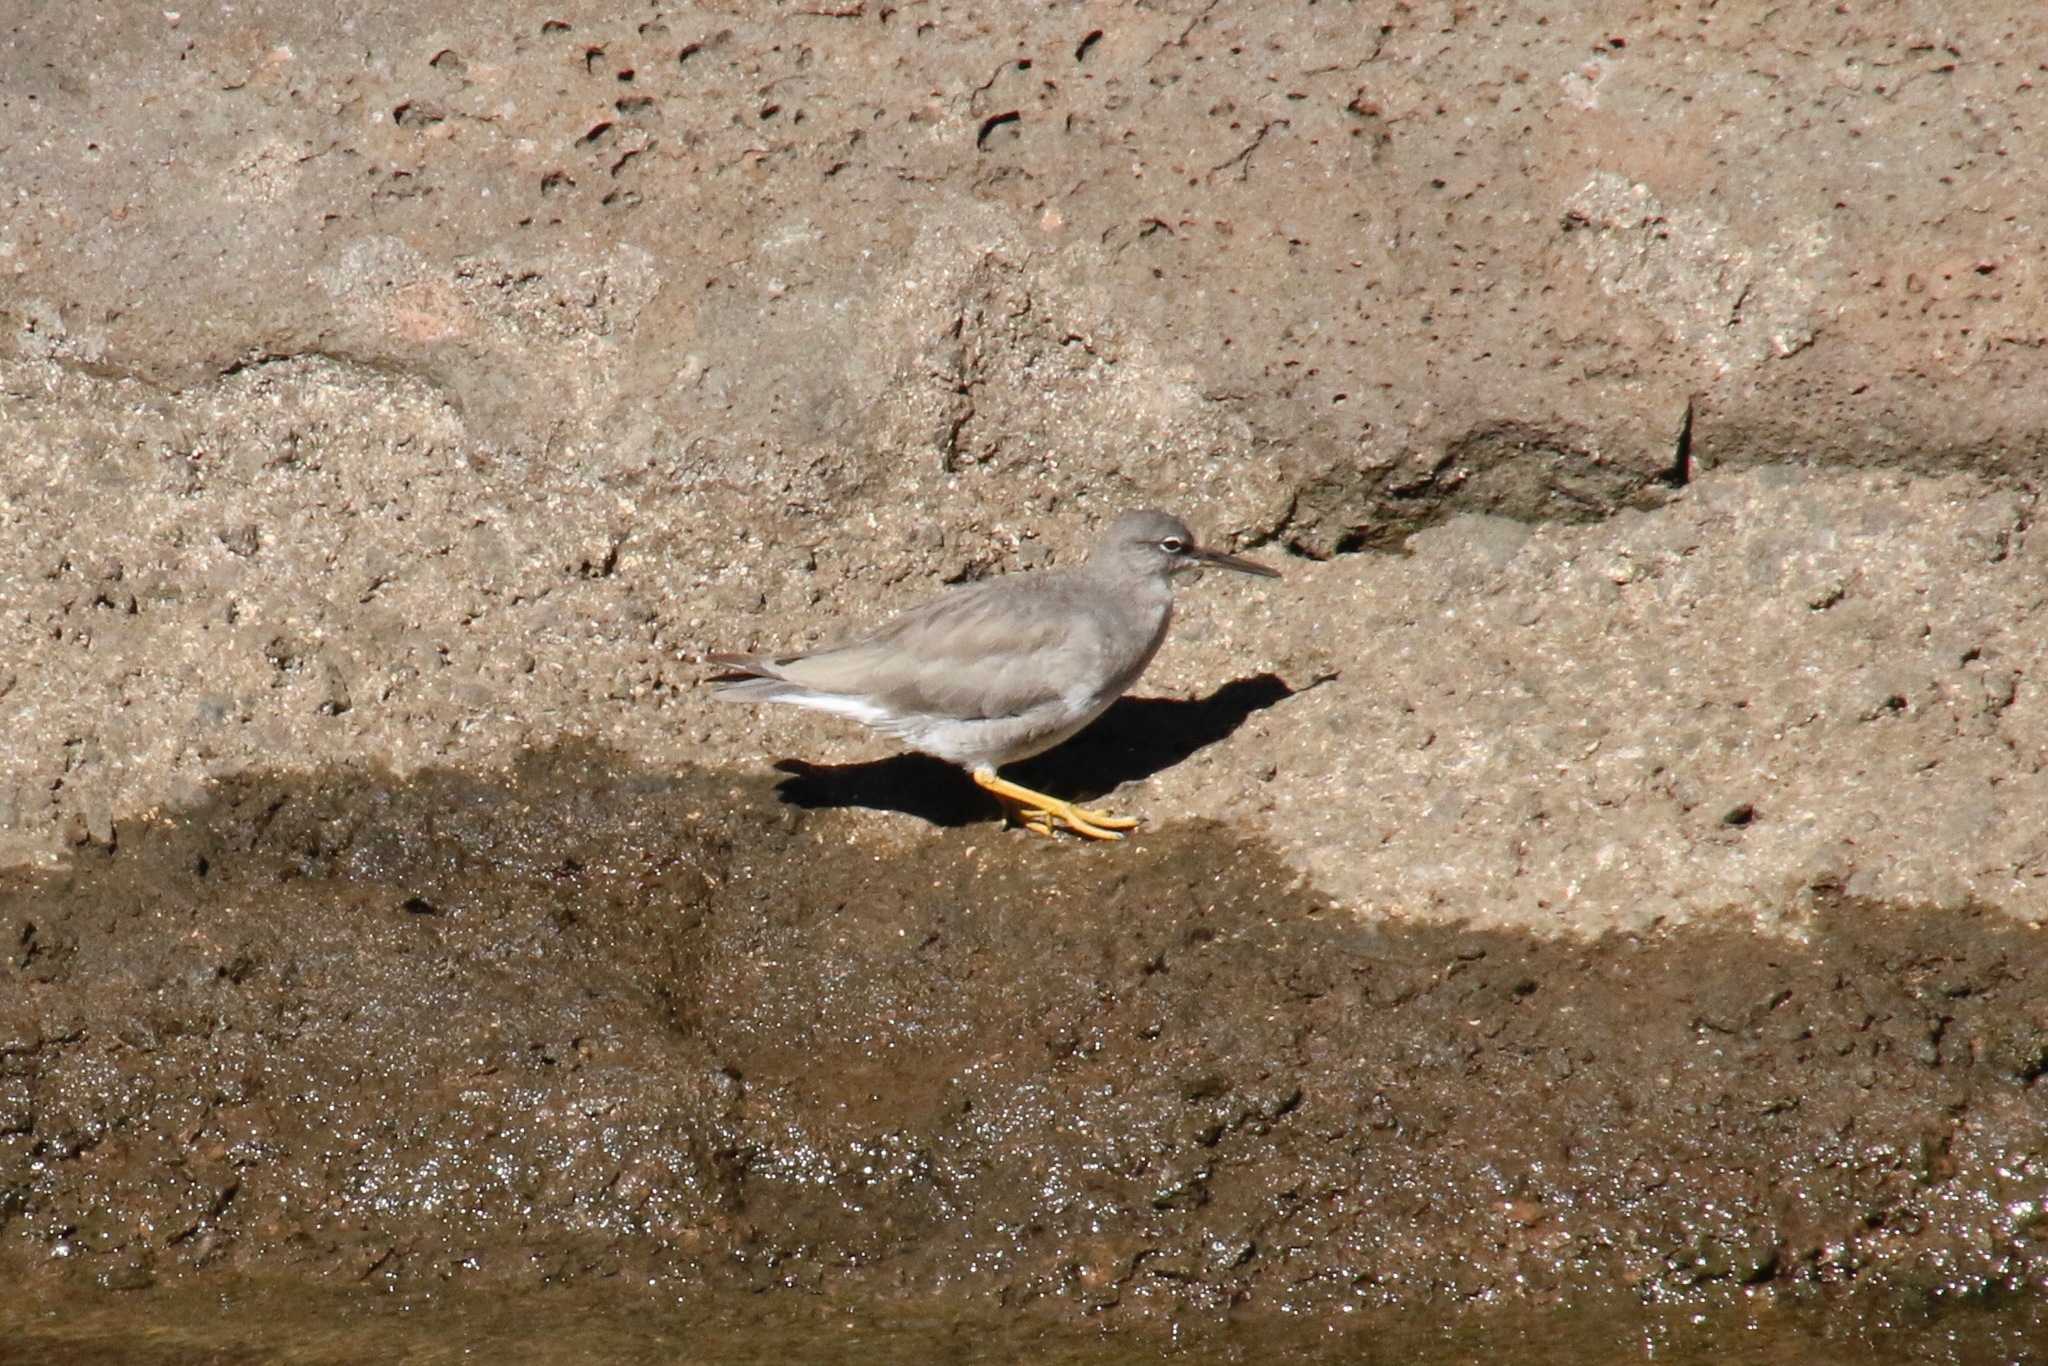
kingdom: Animalia
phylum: Chordata
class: Aves
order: Charadriiformes
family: Scolopacidae
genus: Tringa
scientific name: Tringa incana
